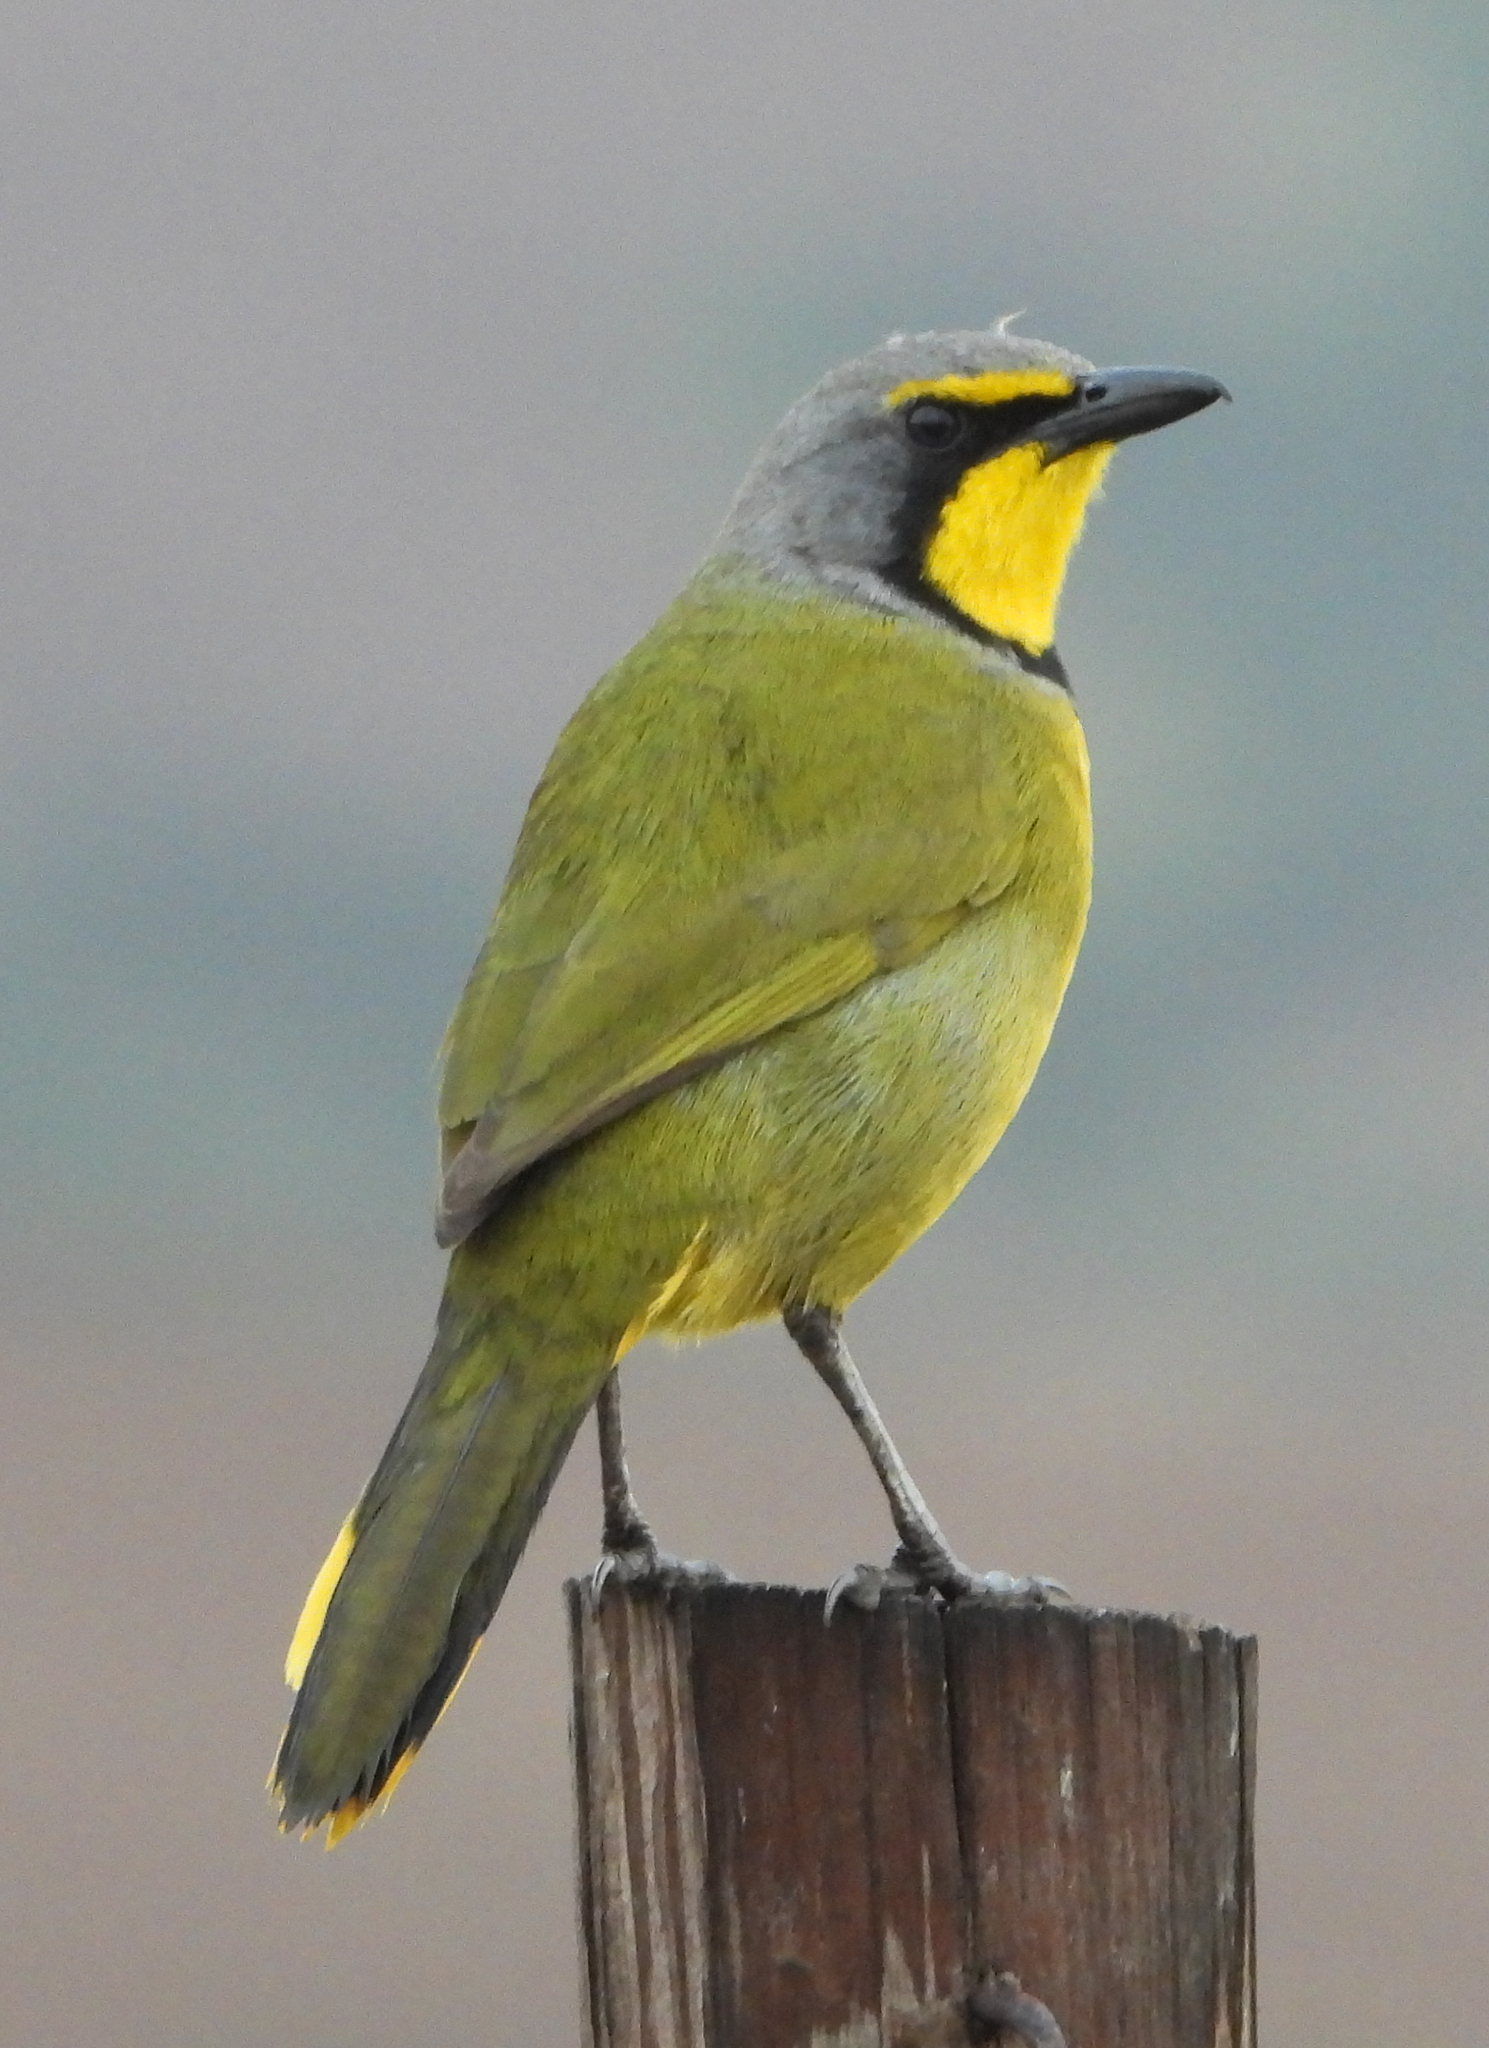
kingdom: Animalia
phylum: Chordata
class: Aves
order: Passeriformes
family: Malaconotidae
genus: Telophorus
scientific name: Telophorus zeylonus
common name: Bokmakierie
